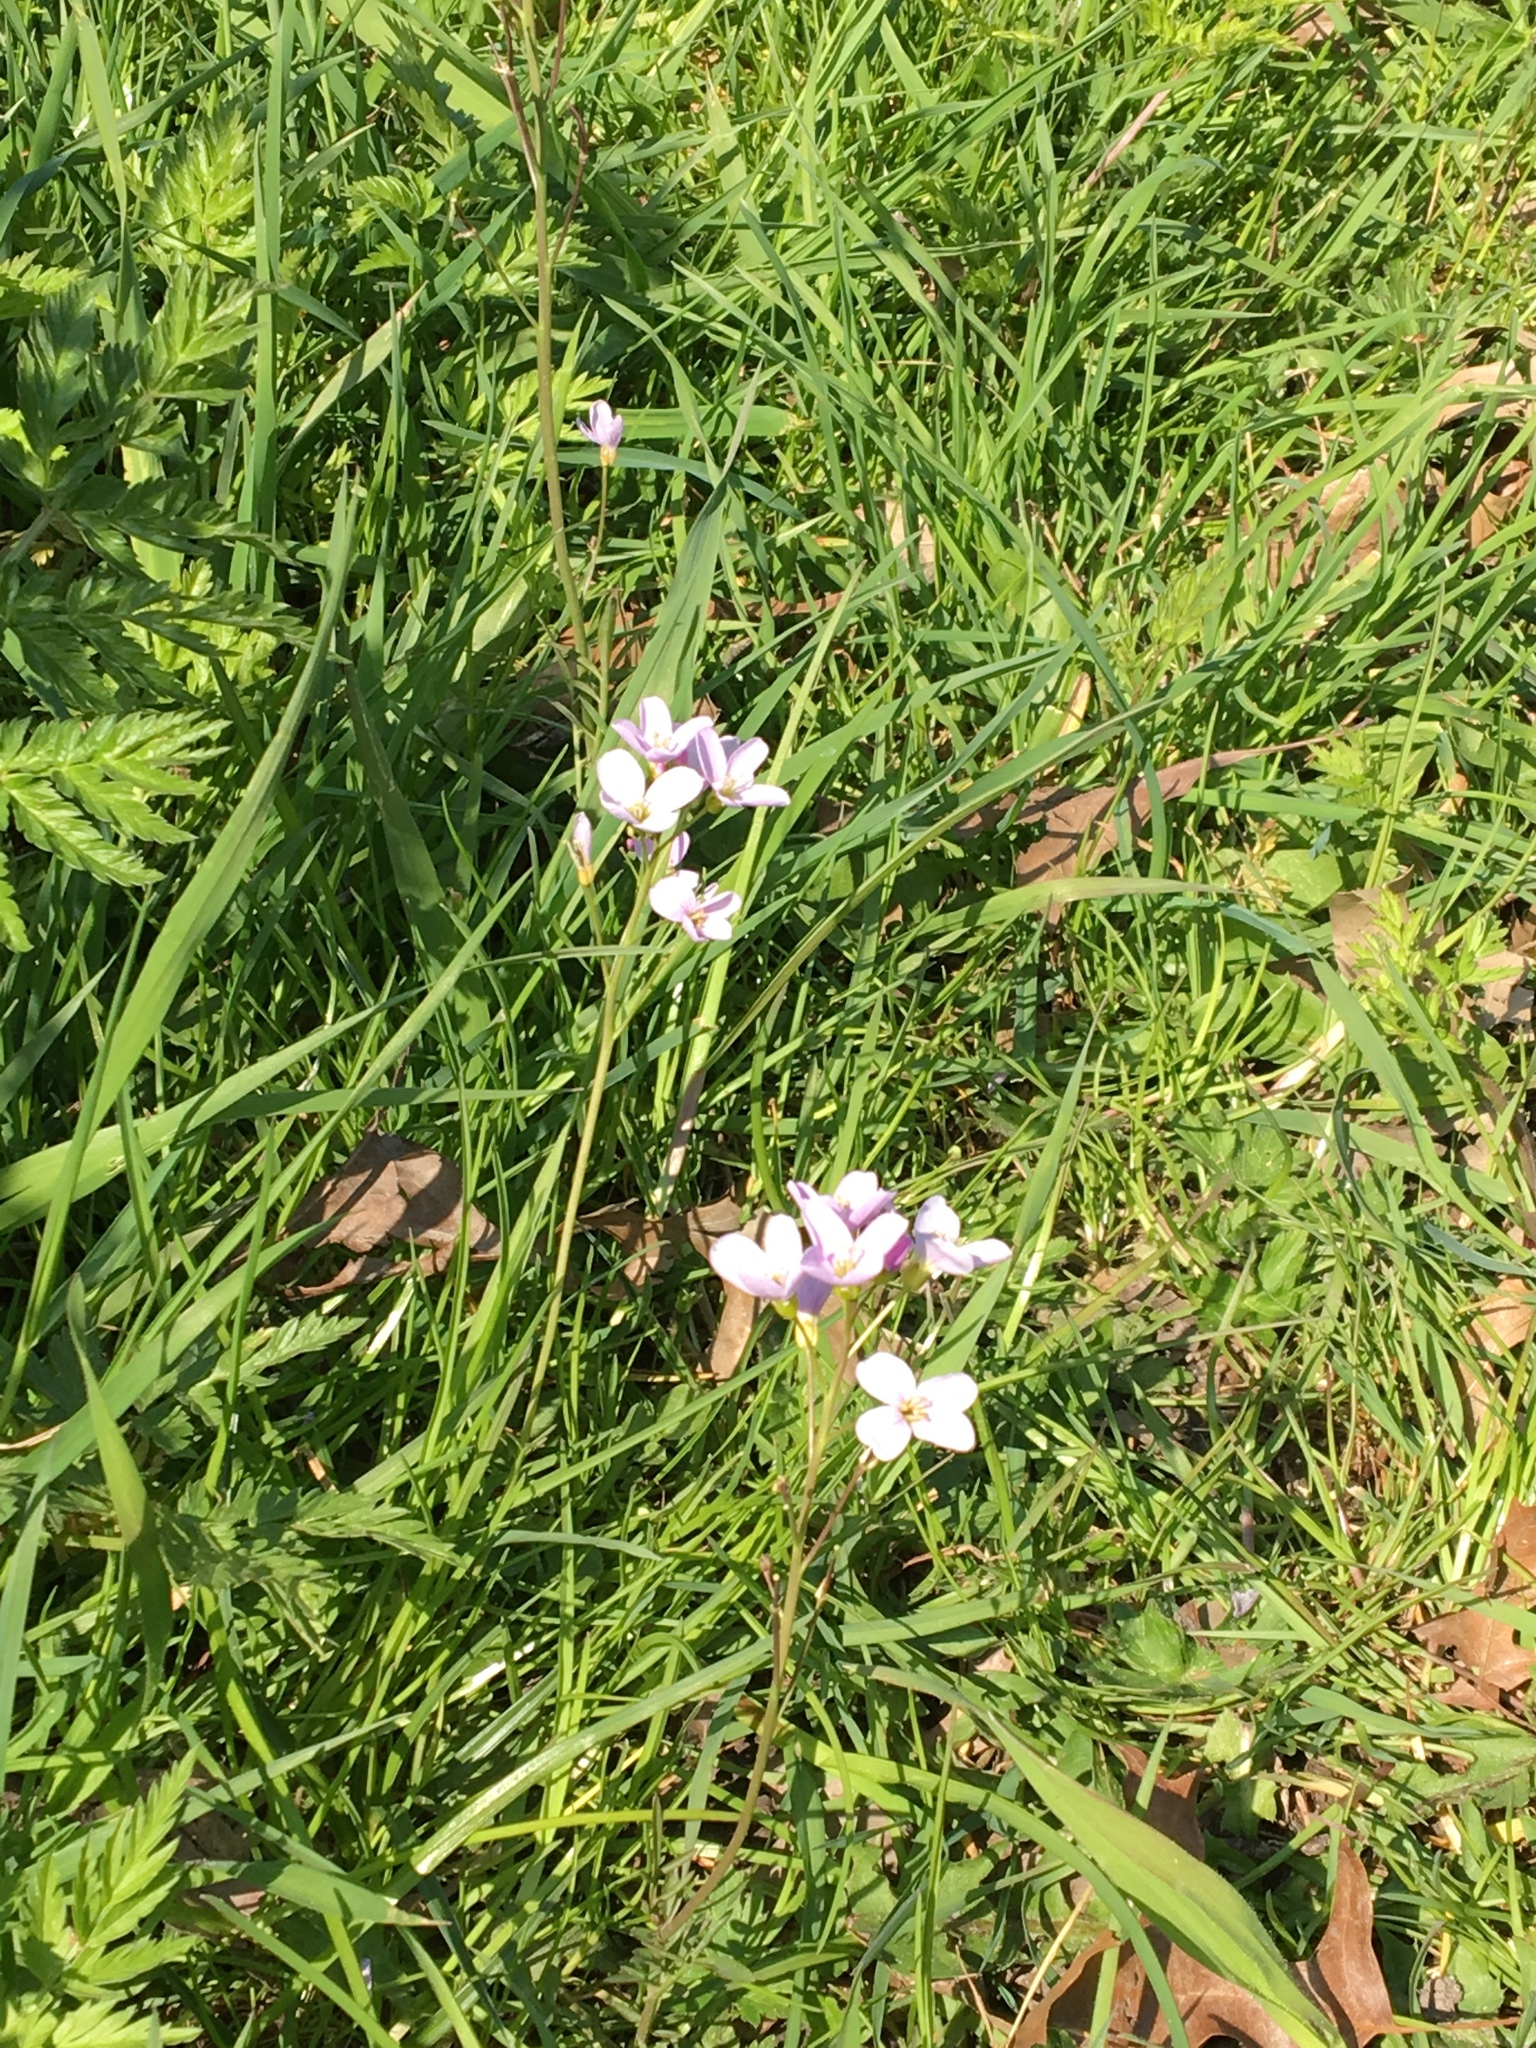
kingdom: Plantae
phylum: Tracheophyta
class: Magnoliopsida
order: Brassicales
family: Brassicaceae
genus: Cardamine
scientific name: Cardamine pratensis
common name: Cuckoo flower
